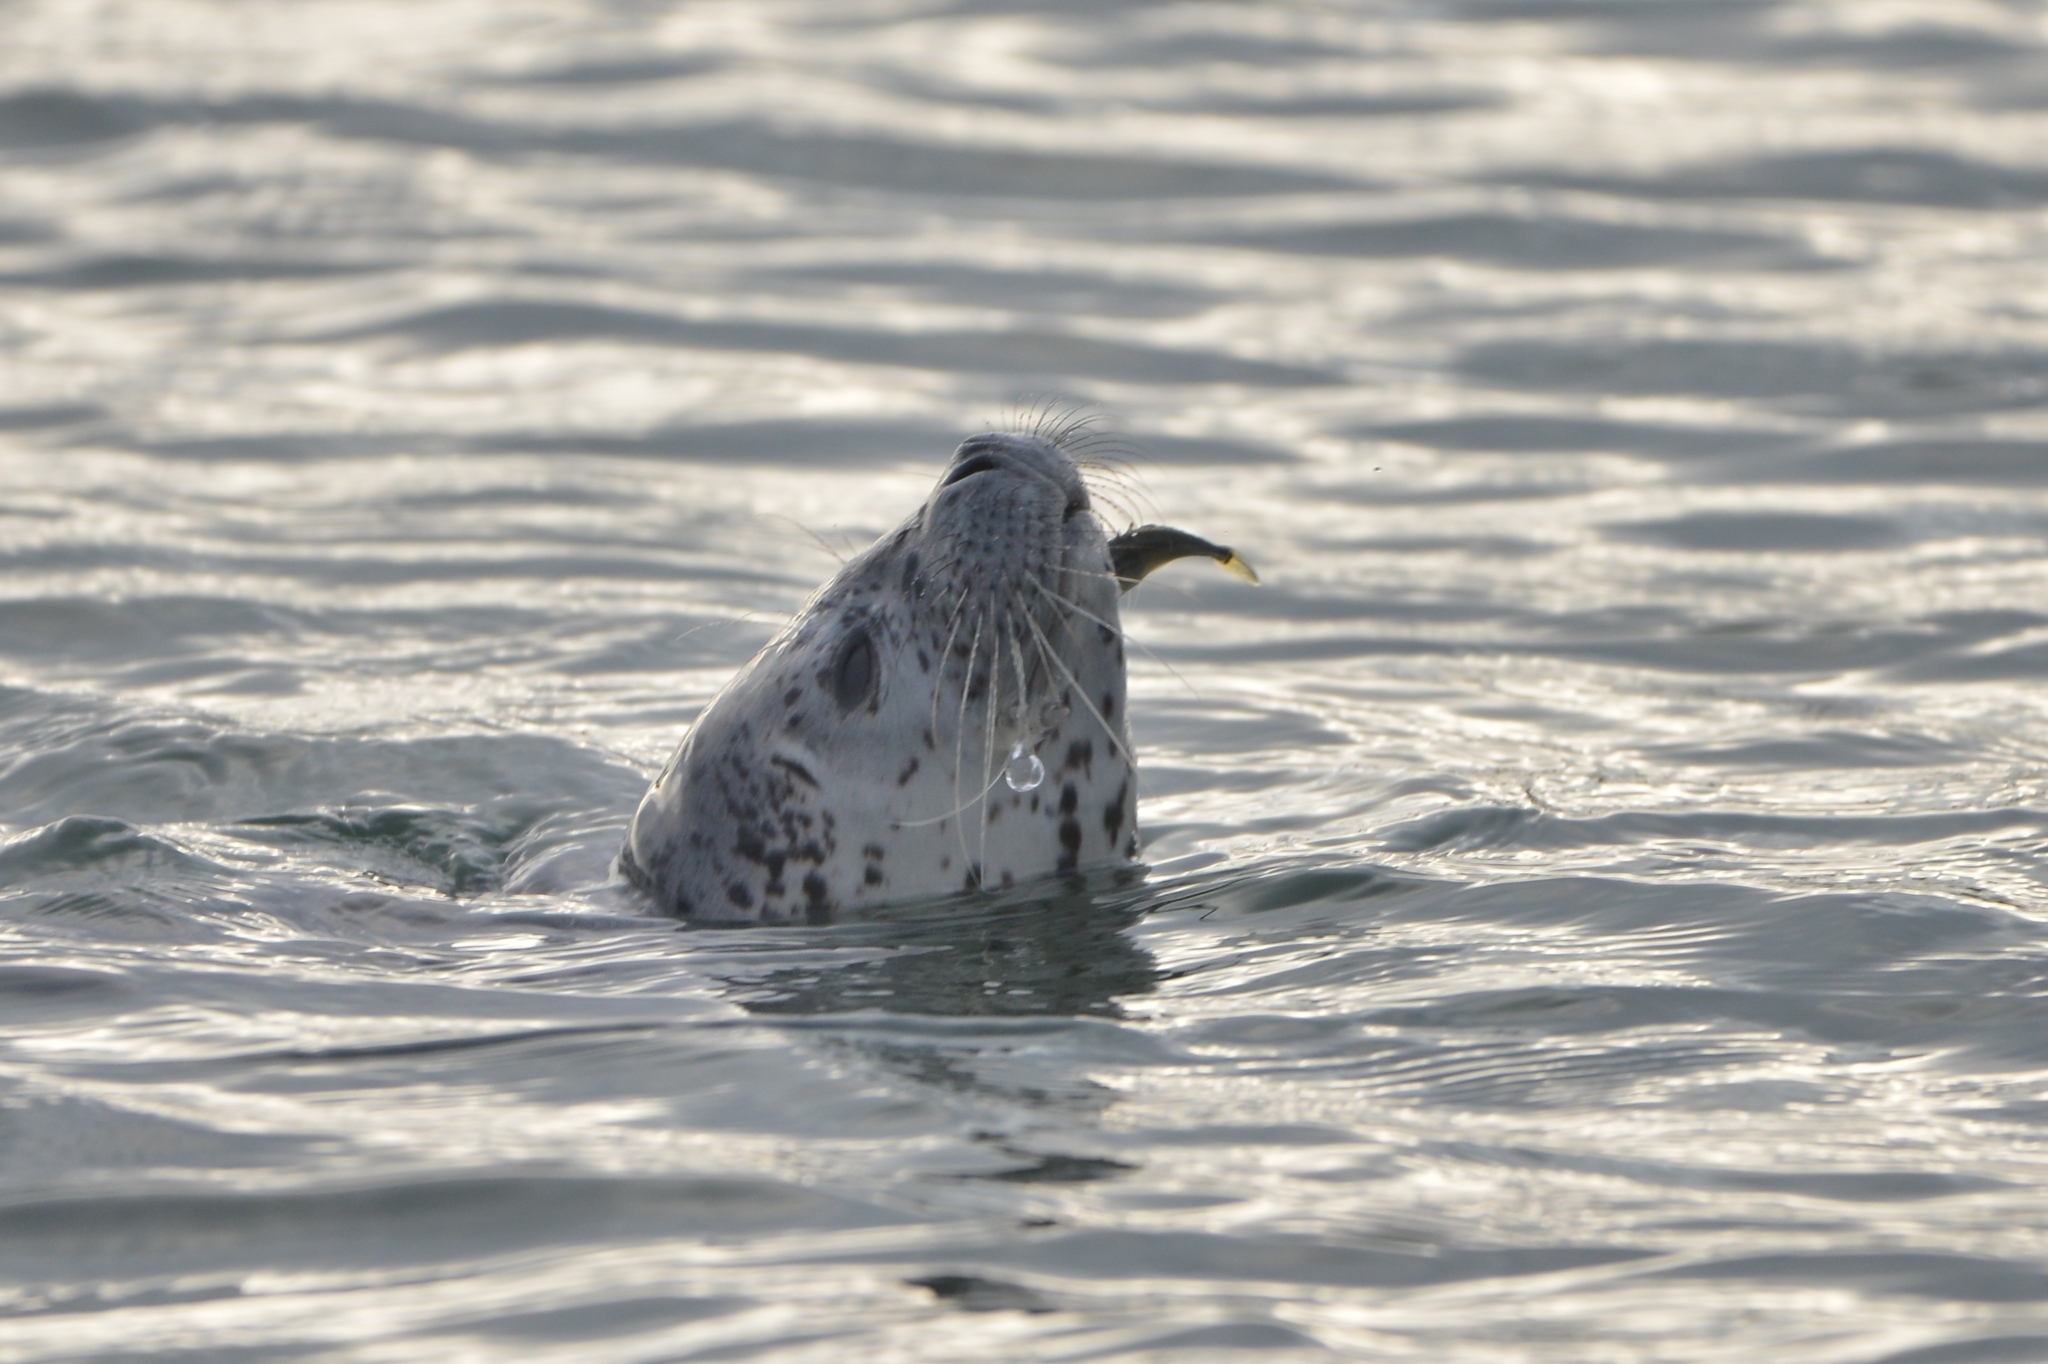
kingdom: Animalia
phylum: Chordata
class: Mammalia
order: Carnivora
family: Phocidae
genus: Phoca
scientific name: Phoca largha
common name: Spotted seal
